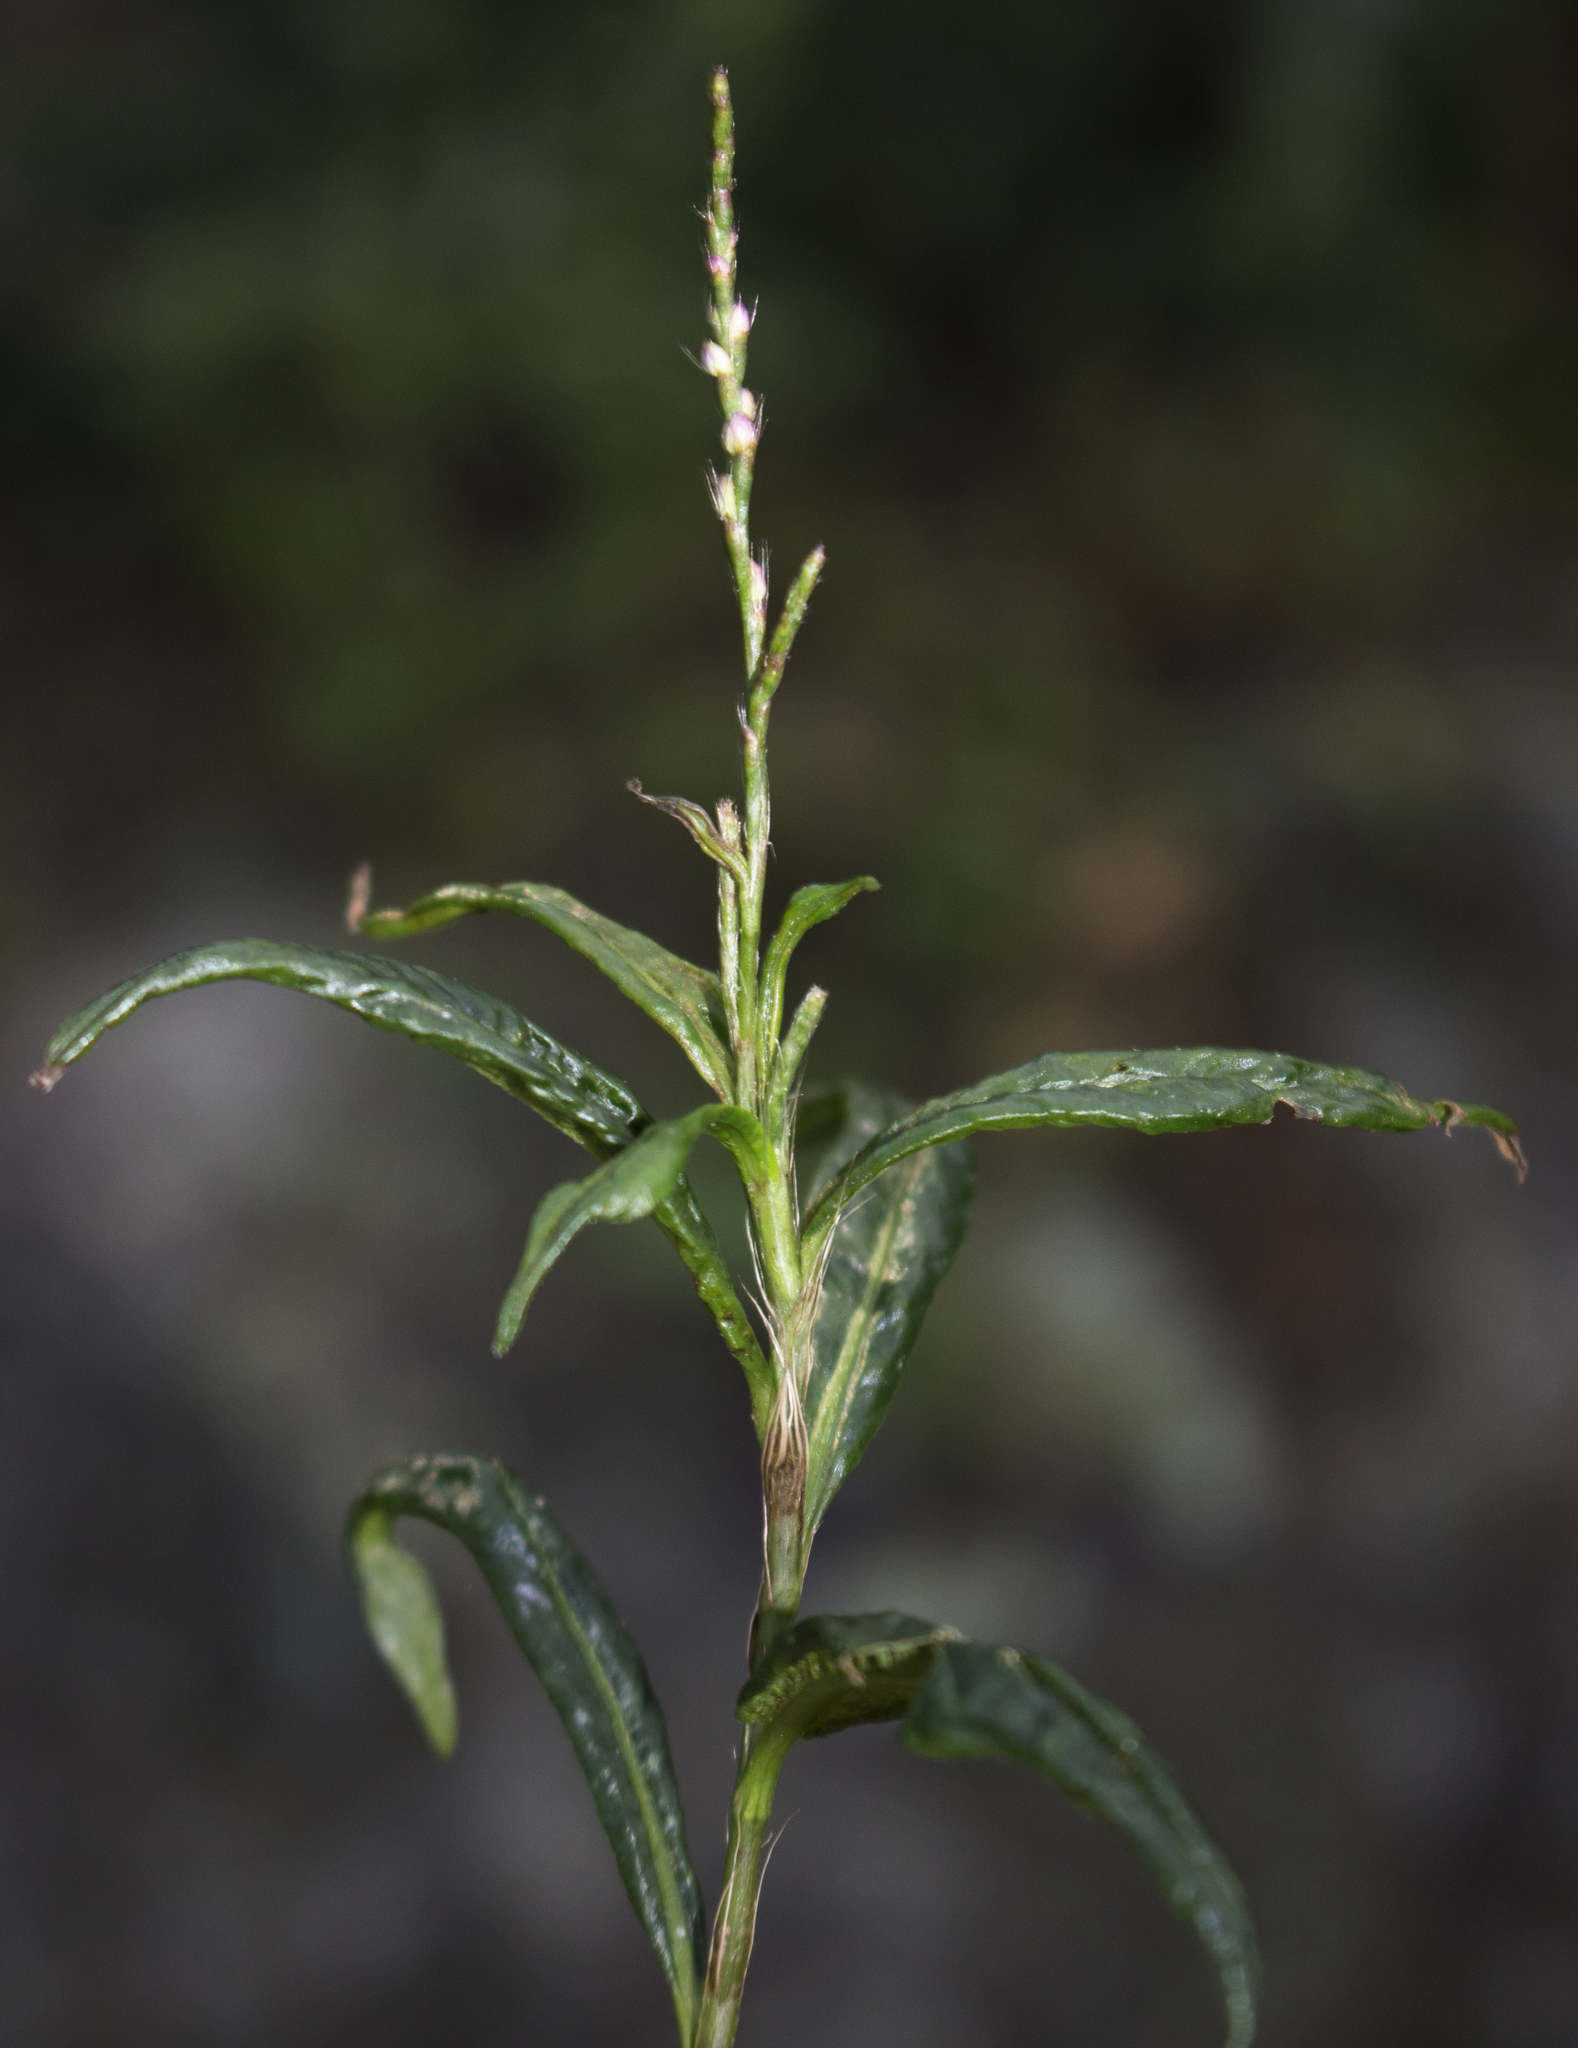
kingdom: Plantae
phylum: Tracheophyta
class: Magnoliopsida
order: Caryophyllales
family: Polygonaceae
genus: Persicaria
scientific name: Persicaria longiseta
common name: Bristly lady's-thumb
